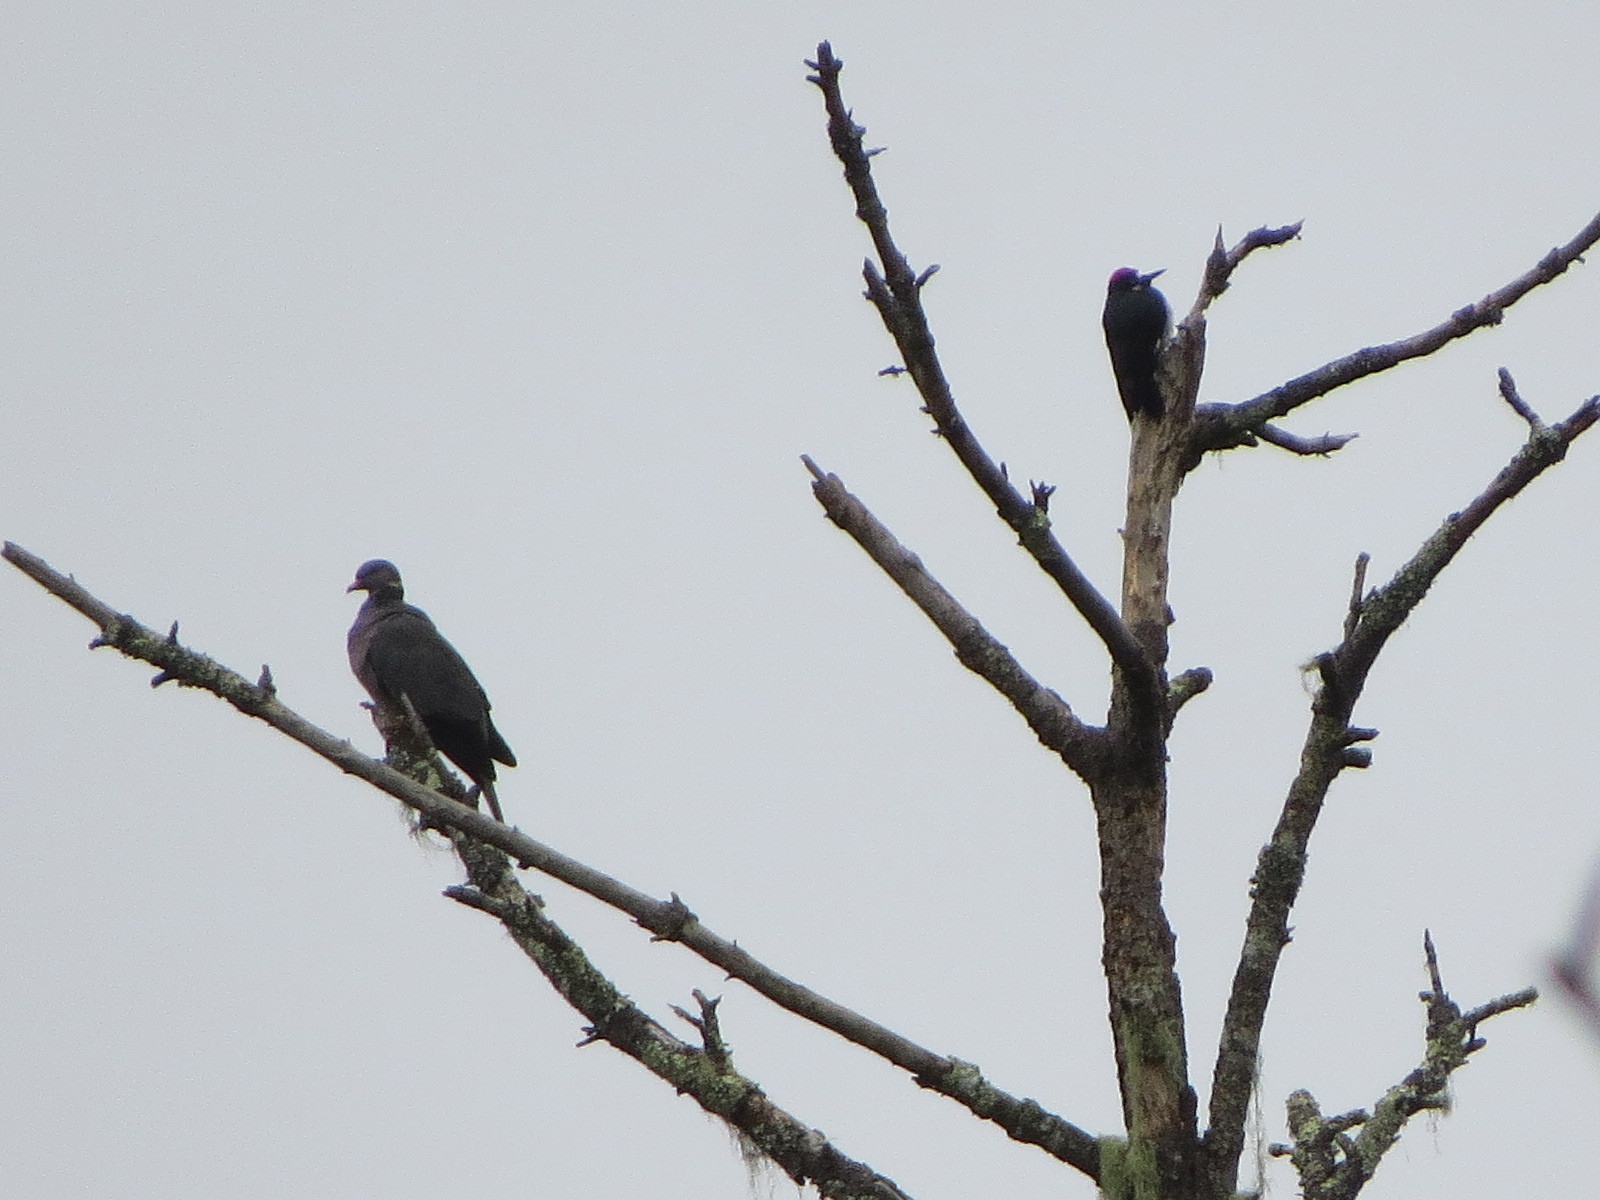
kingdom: Animalia
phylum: Chordata
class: Aves
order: Columbiformes
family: Columbidae
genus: Patagioenas
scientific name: Patagioenas fasciata
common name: Band-tailed pigeon
